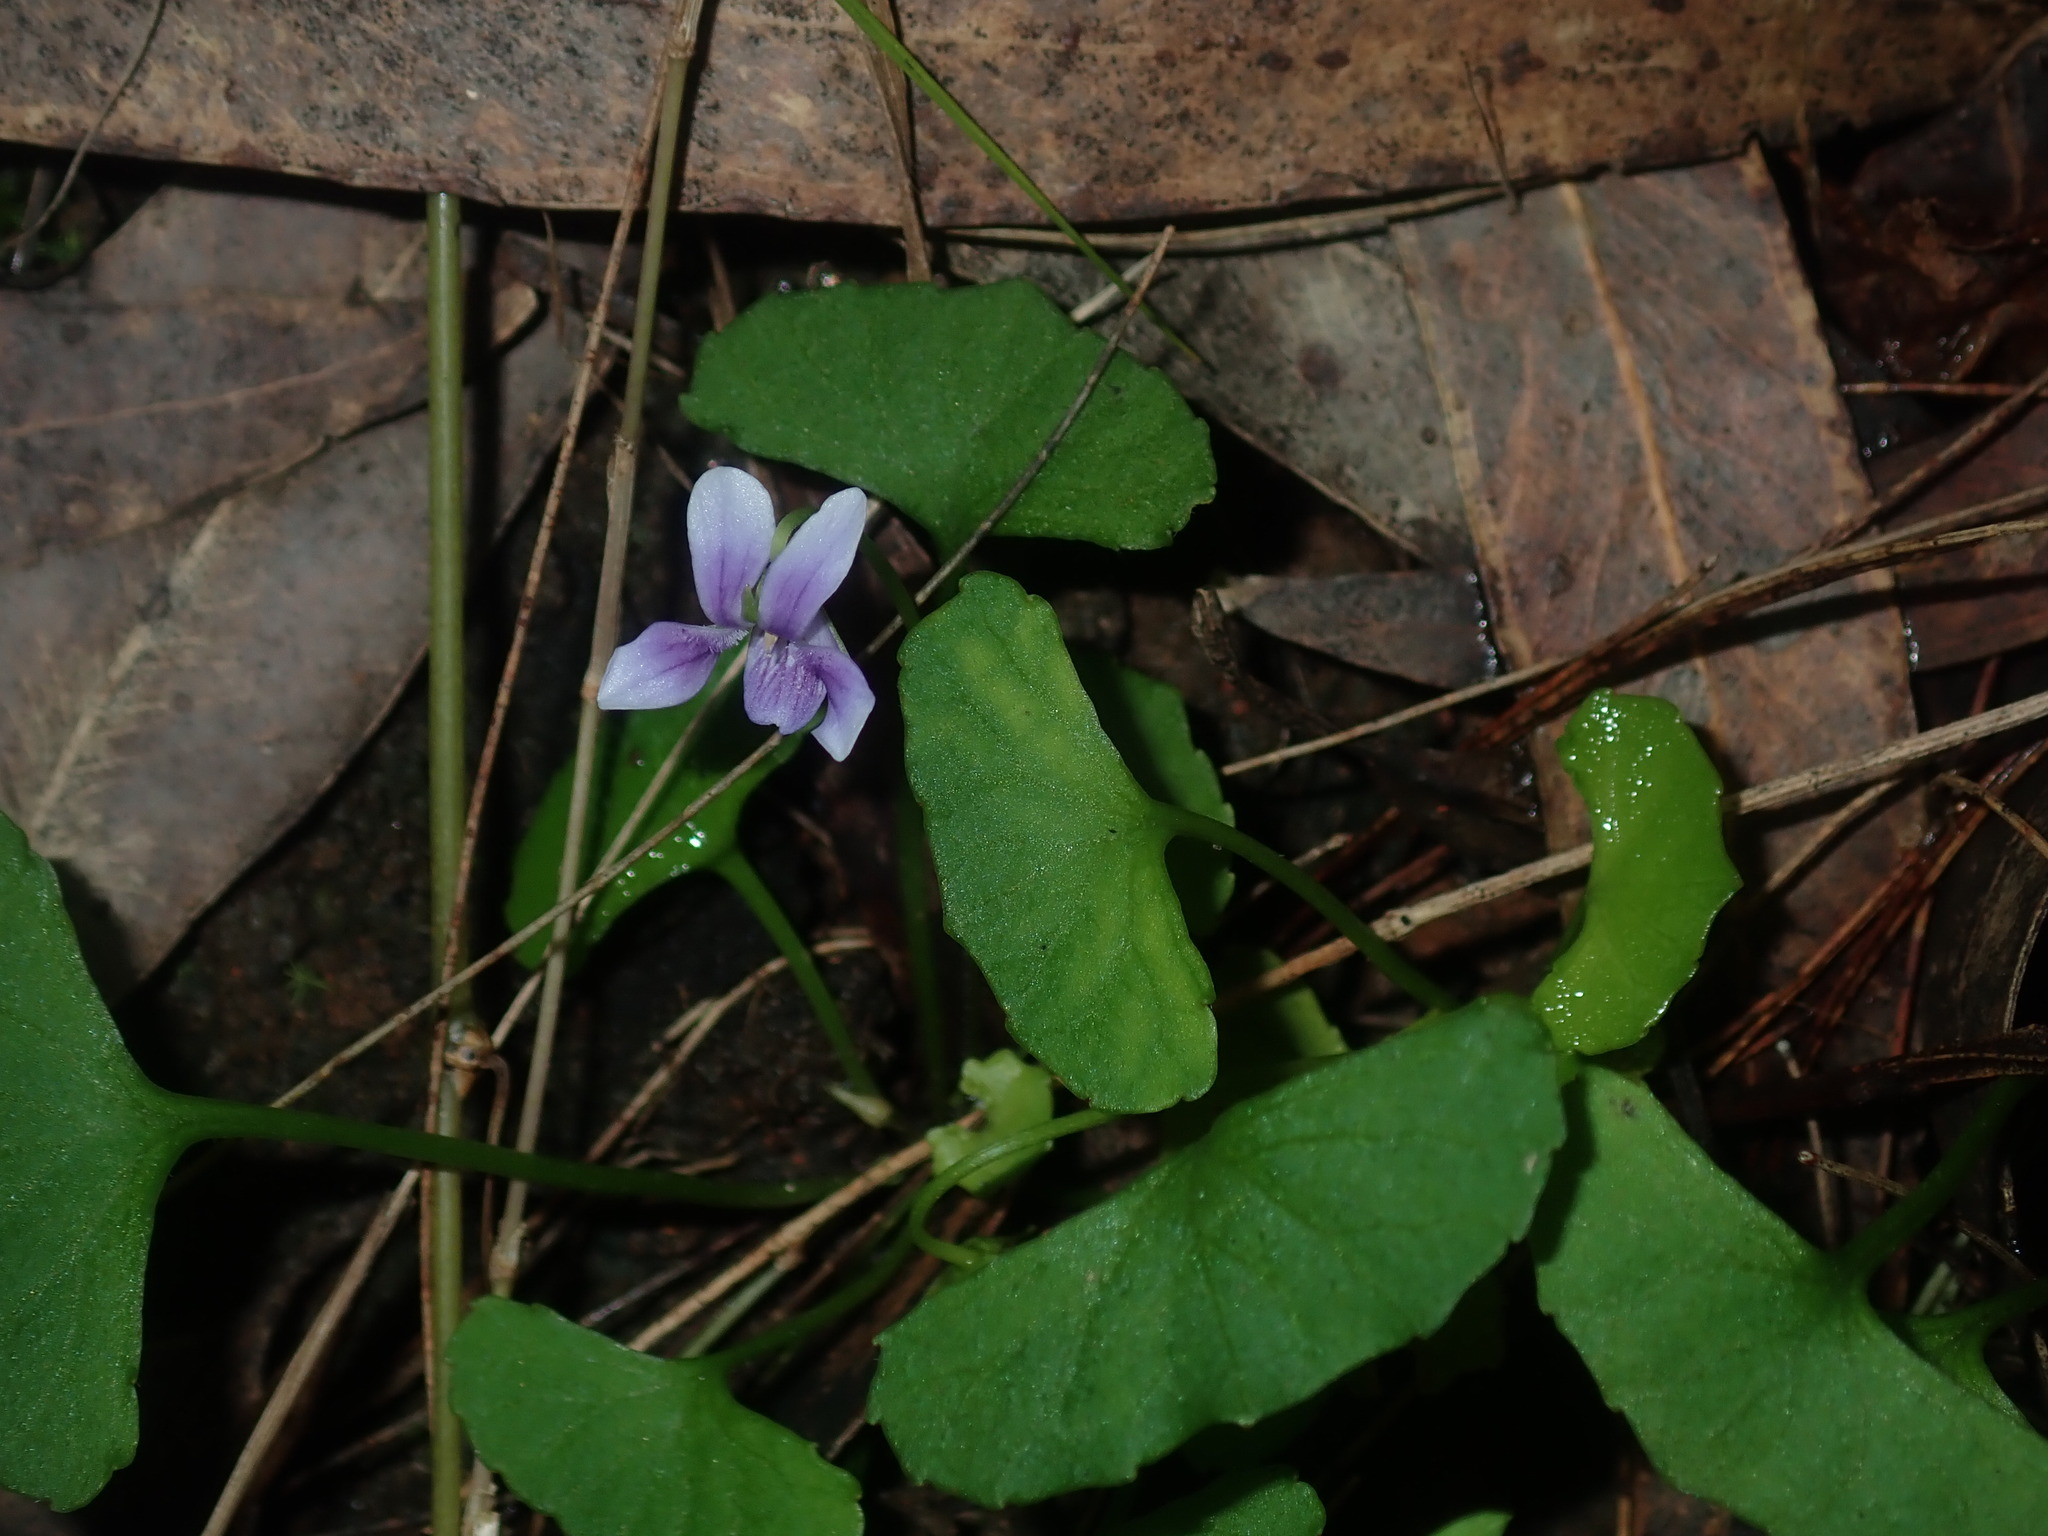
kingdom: Plantae
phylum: Tracheophyta
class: Magnoliopsida
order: Malpighiales
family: Violaceae
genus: Viola
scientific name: Viola silicestris
